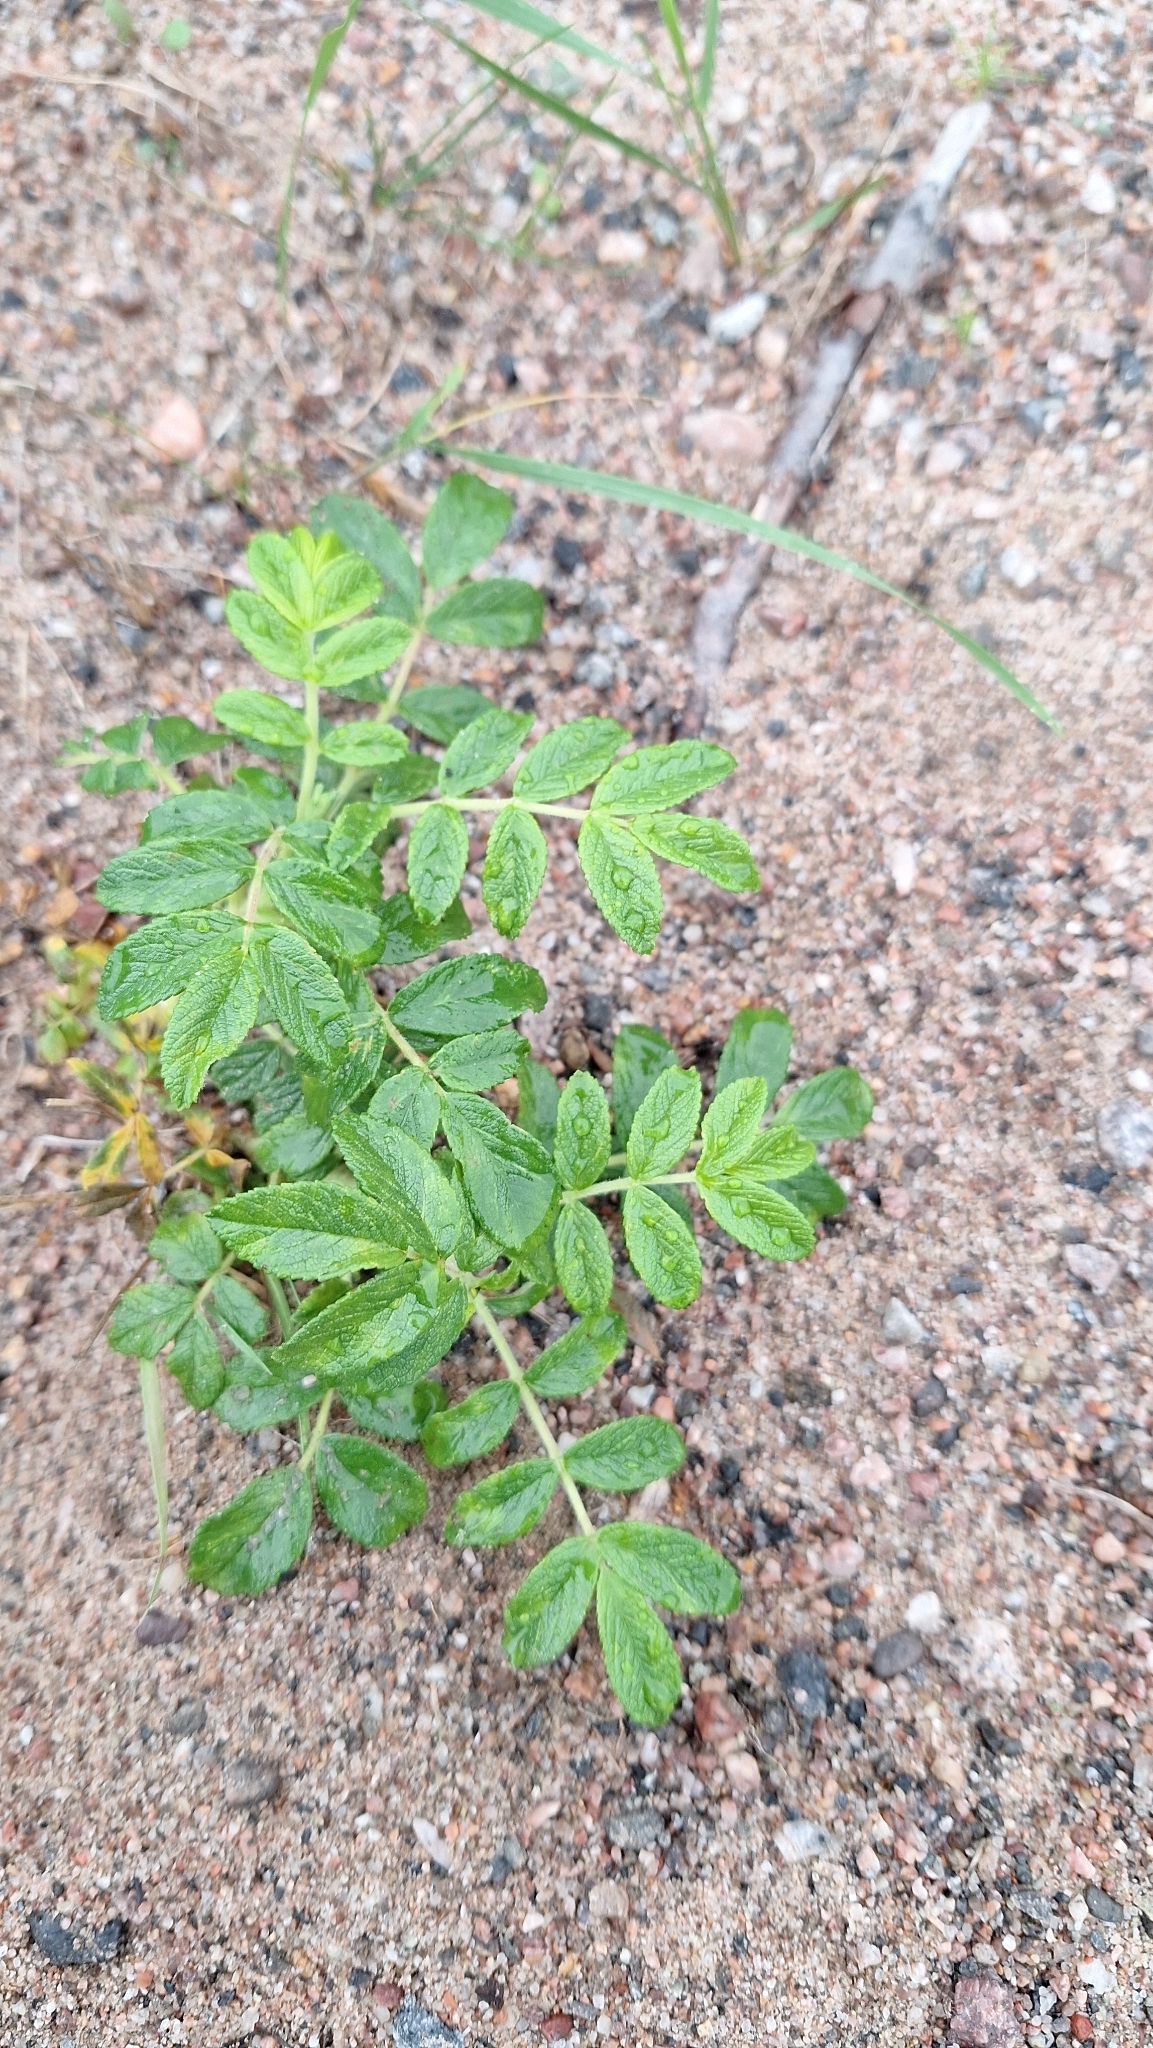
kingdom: Plantae
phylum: Tracheophyta
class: Magnoliopsida
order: Rosales
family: Rosaceae
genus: Rosa
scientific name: Rosa rugosa
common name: Japanese rose
